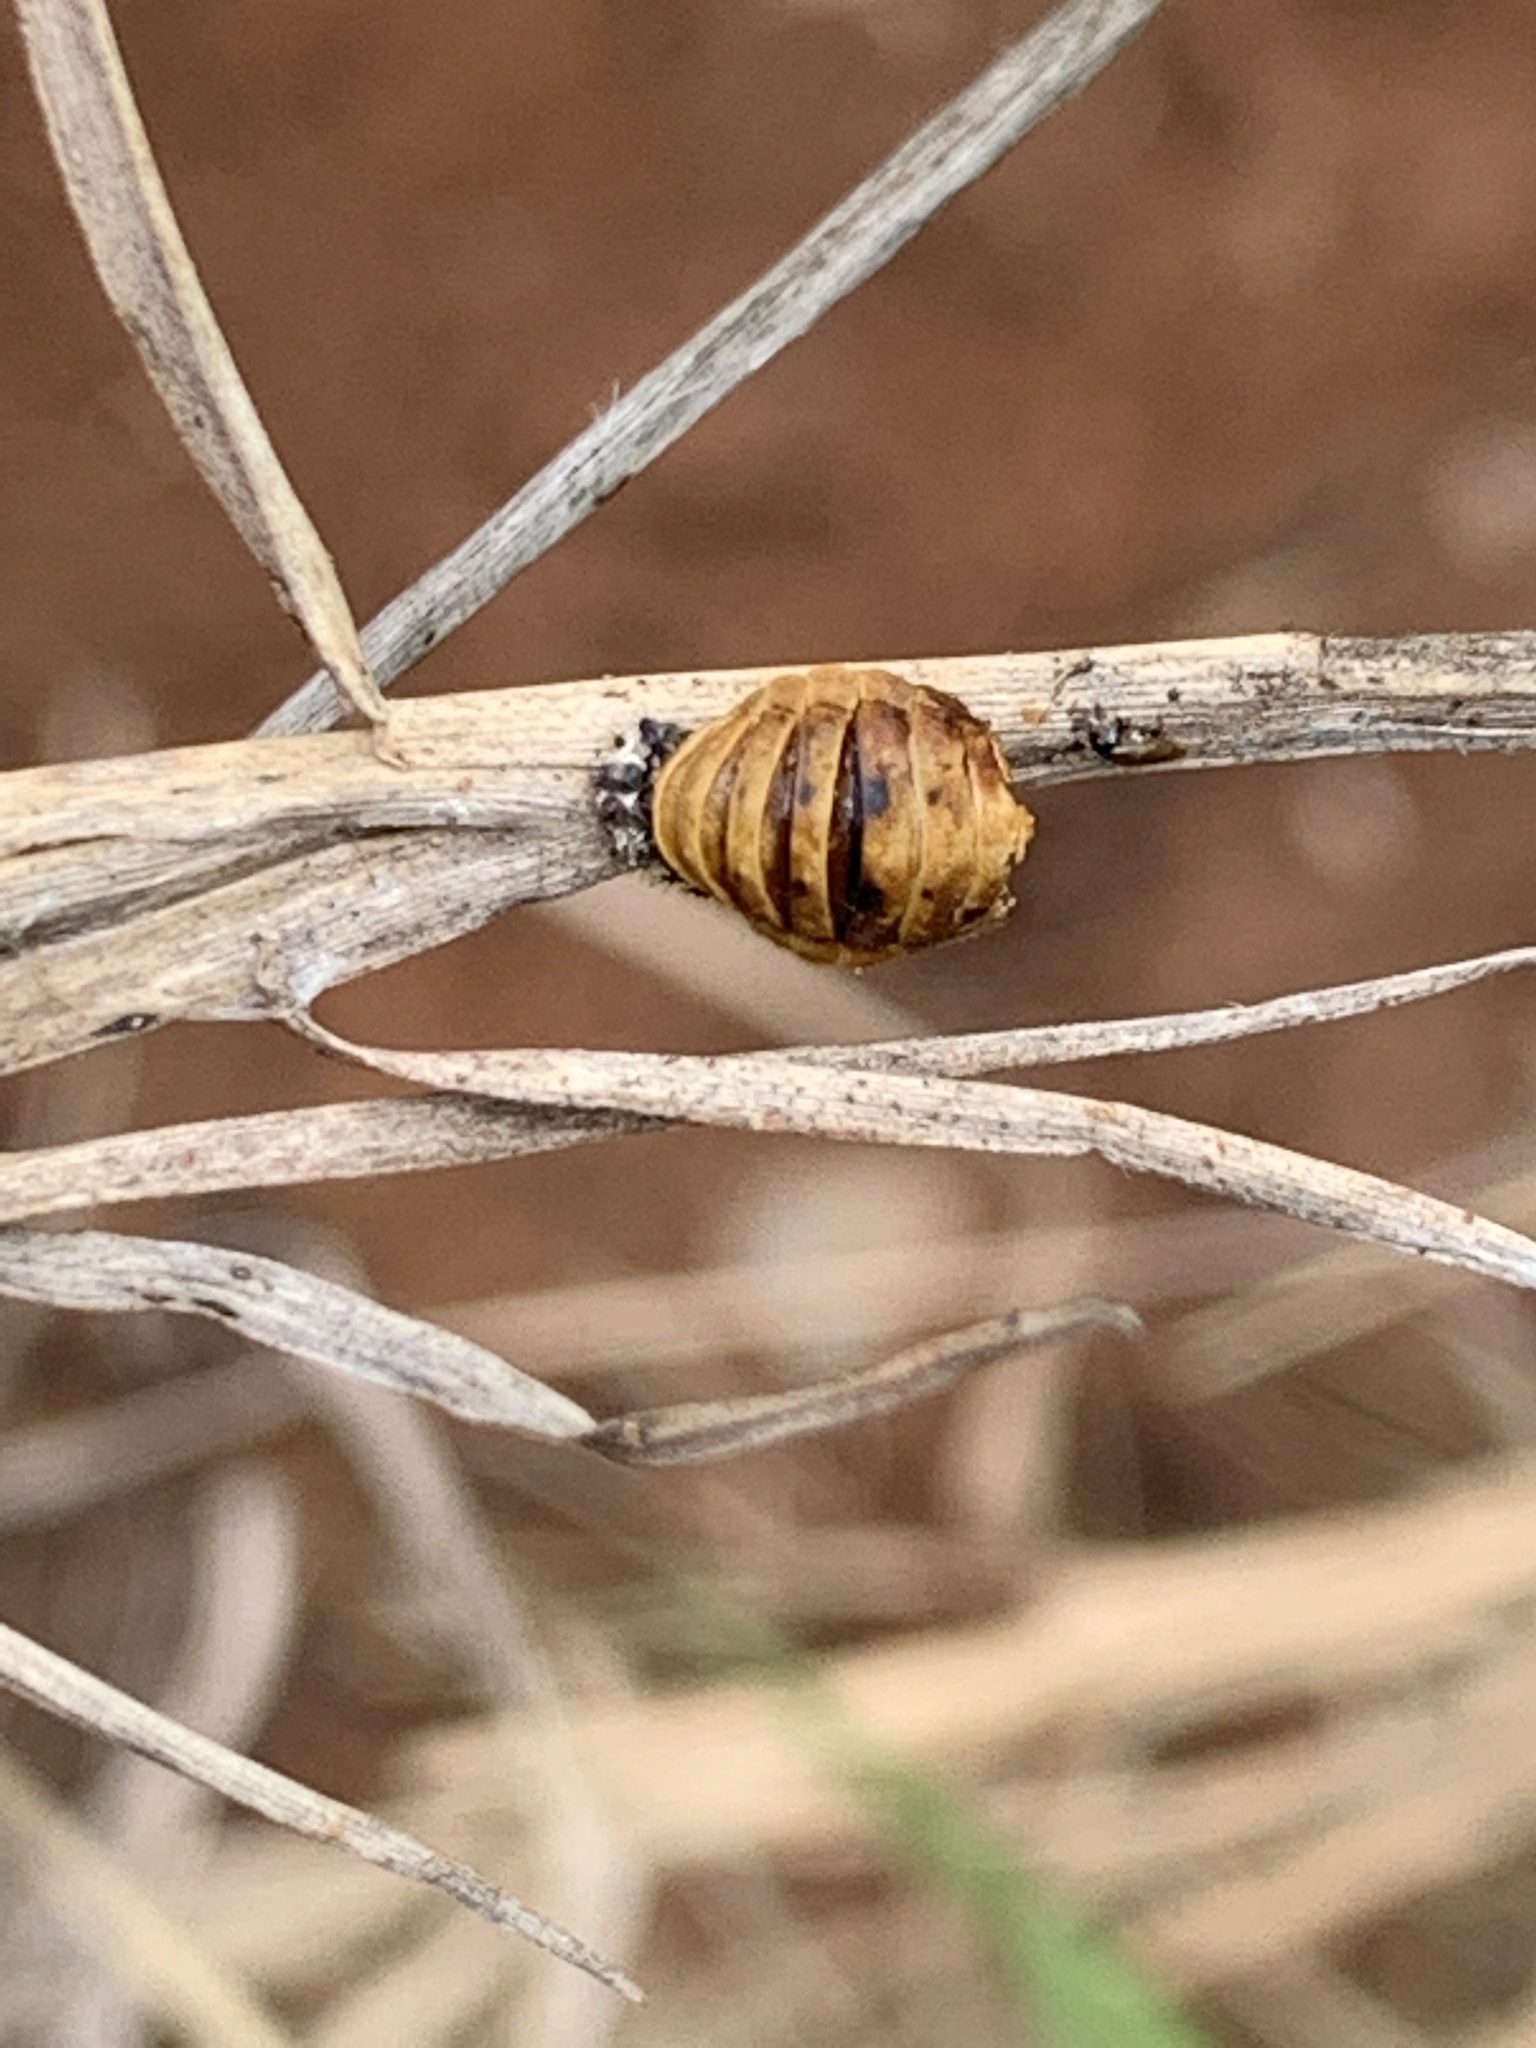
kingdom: Animalia
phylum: Arthropoda
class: Insecta
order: Coleoptera
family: Coccinellidae
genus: Harmonia
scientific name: Harmonia axyridis
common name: Harlequin ladybird
